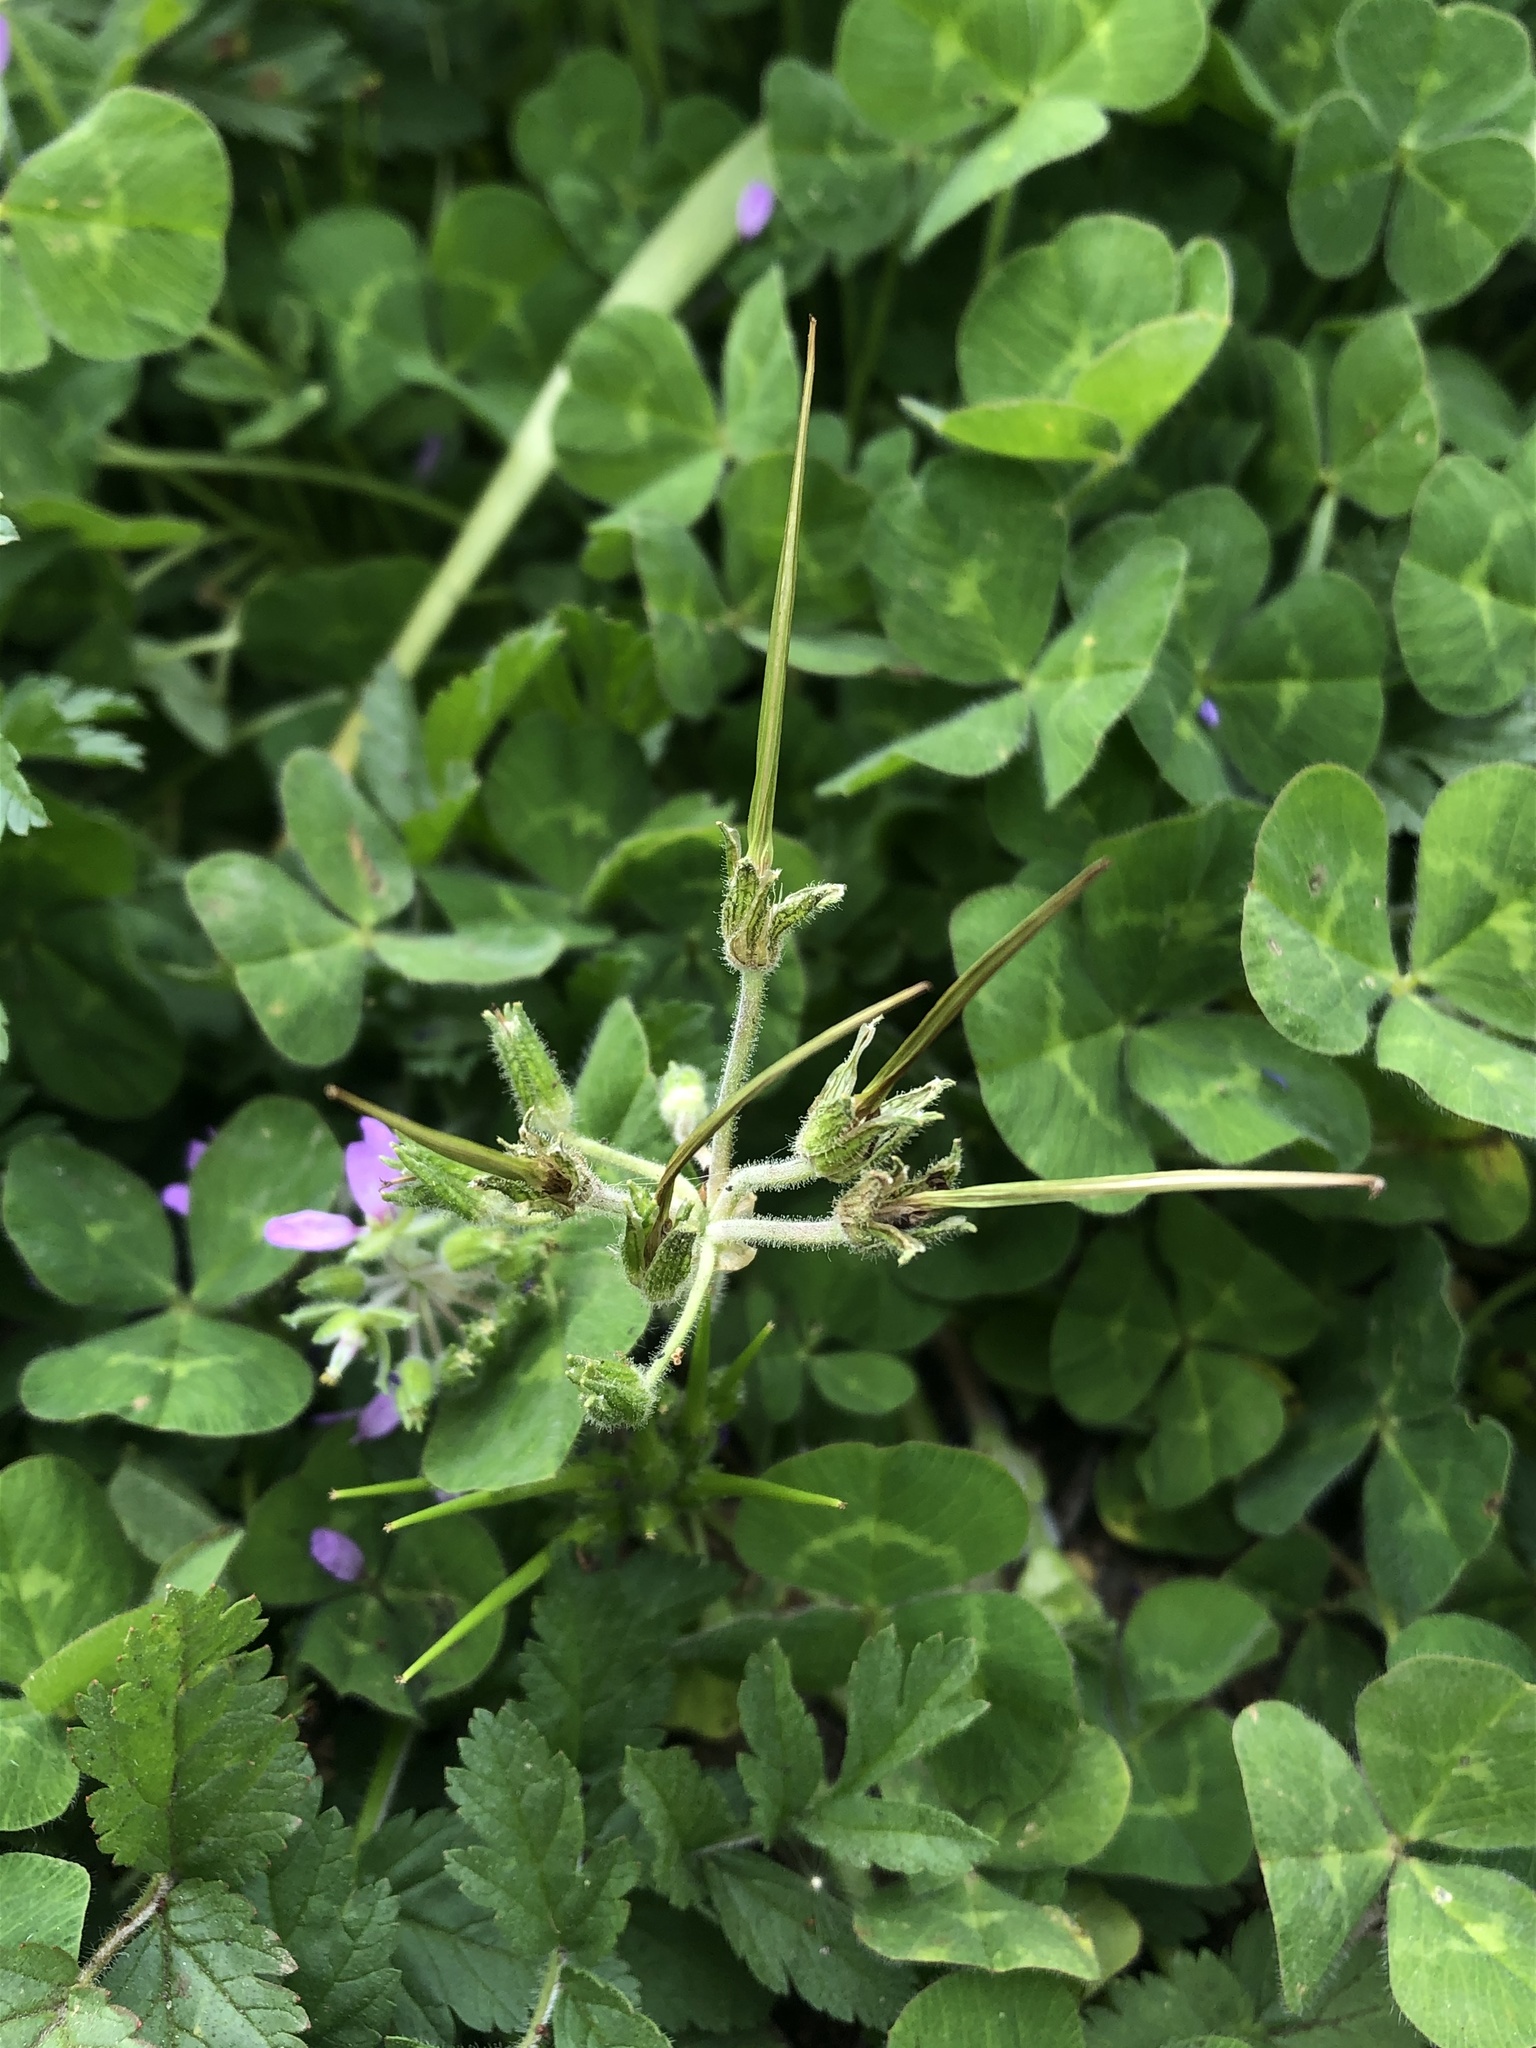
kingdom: Plantae
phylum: Tracheophyta
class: Magnoliopsida
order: Geraniales
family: Geraniaceae
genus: Erodium
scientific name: Erodium moschatum
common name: Musk stork's-bill
